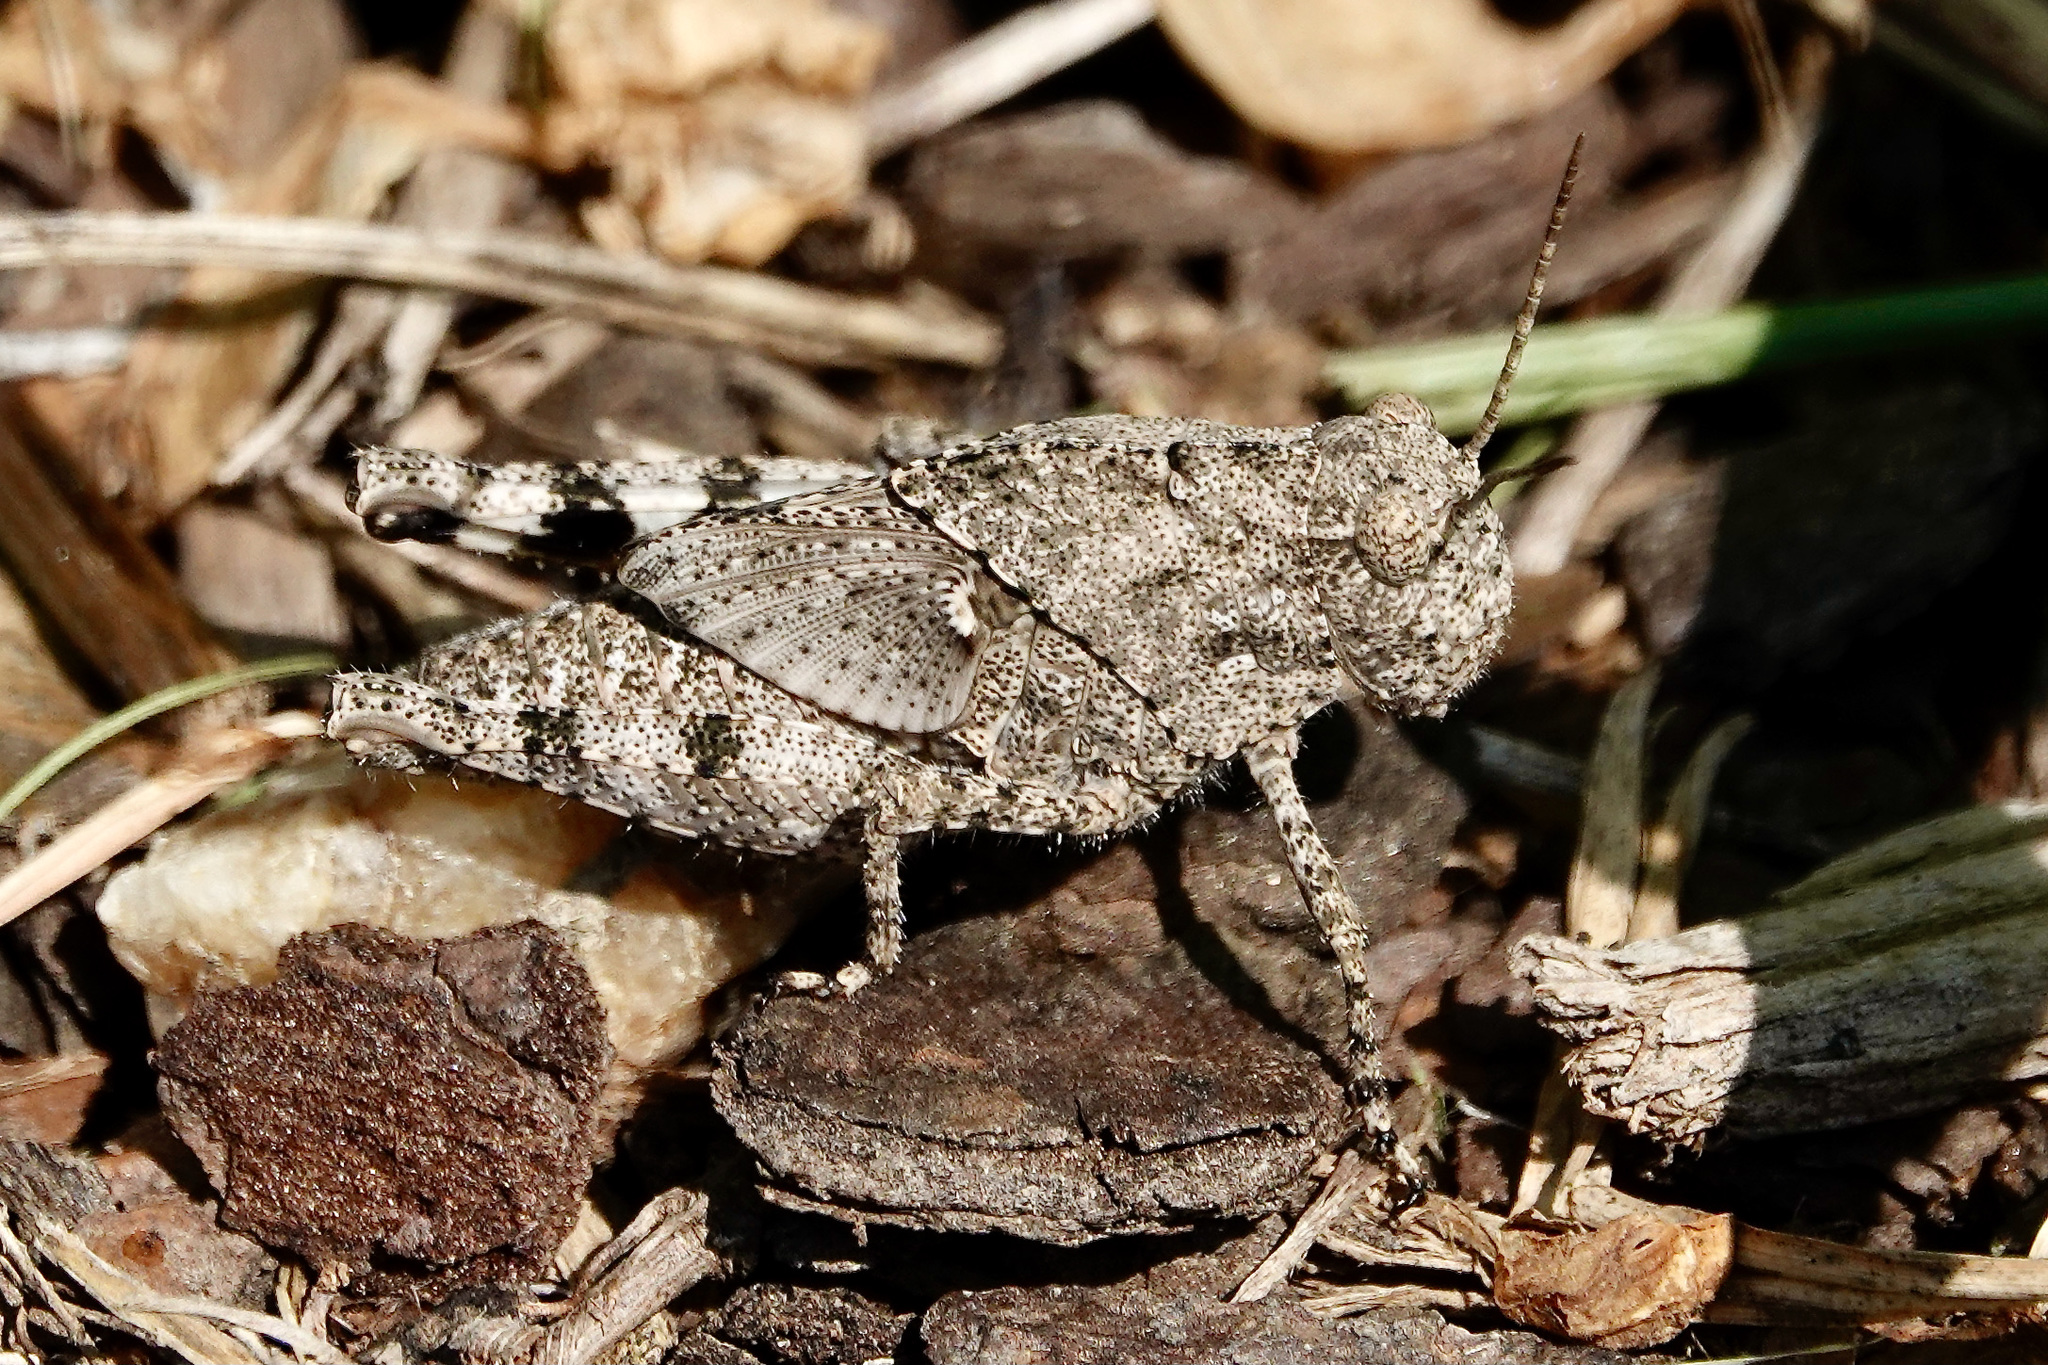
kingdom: Animalia
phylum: Arthropoda
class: Insecta
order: Orthoptera
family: Acrididae
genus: Dissosteira
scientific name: Dissosteira carolina
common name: Carolina grasshopper
